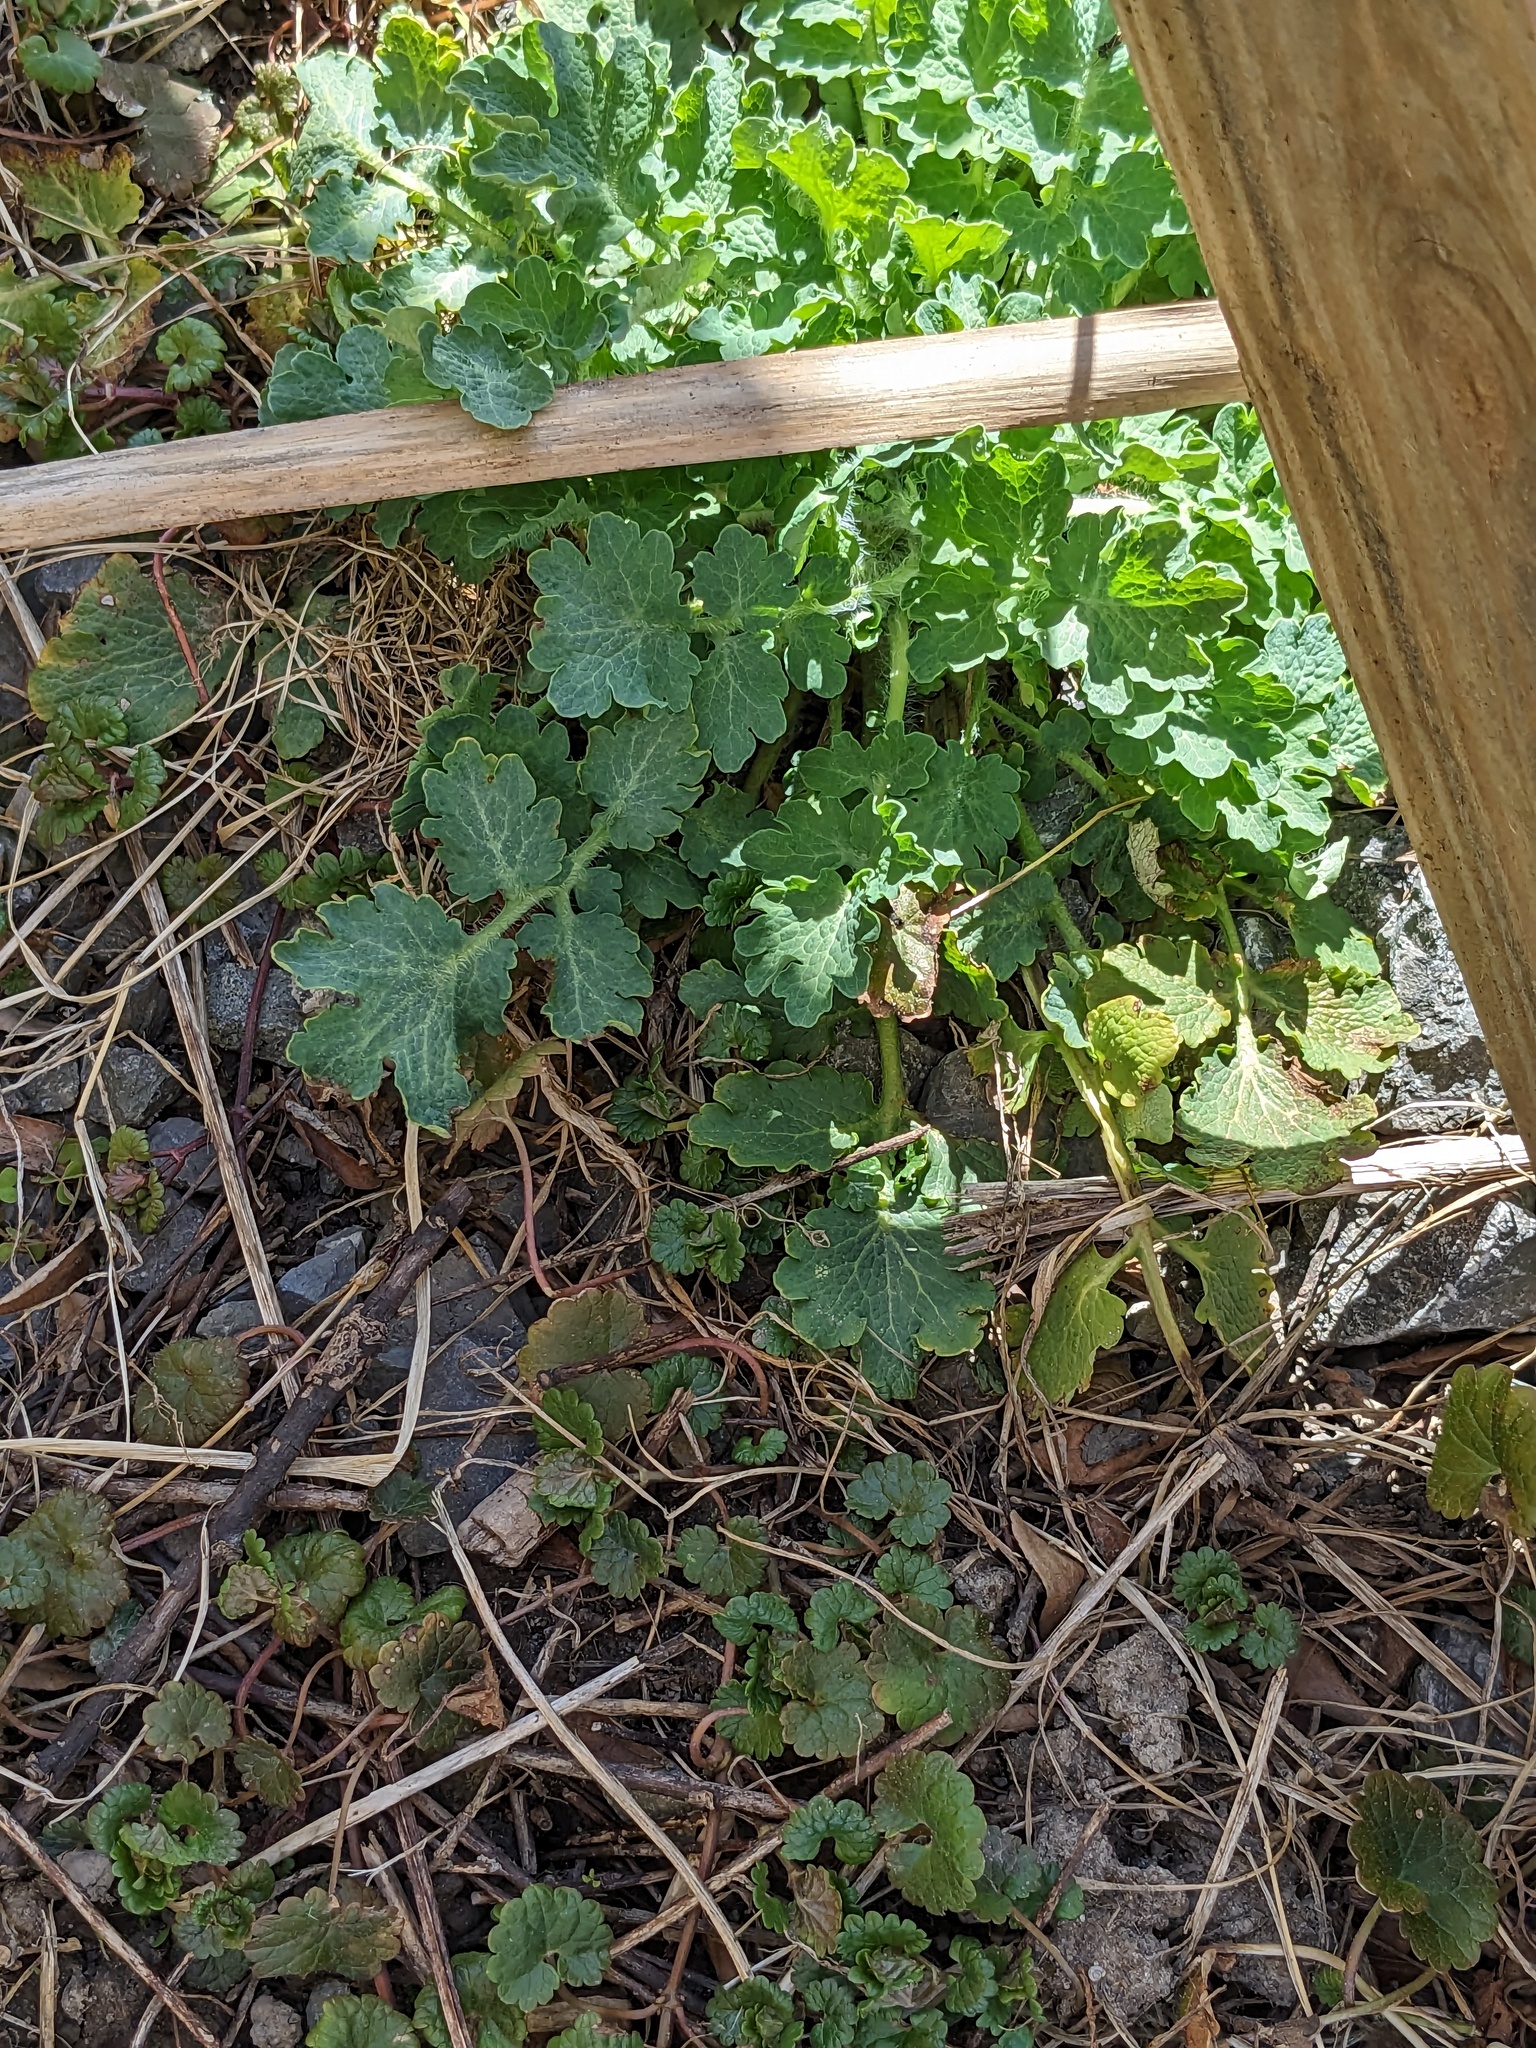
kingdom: Plantae
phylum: Tracheophyta
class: Magnoliopsida
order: Ranunculales
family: Papaveraceae
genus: Chelidonium
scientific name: Chelidonium majus
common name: Greater celandine
